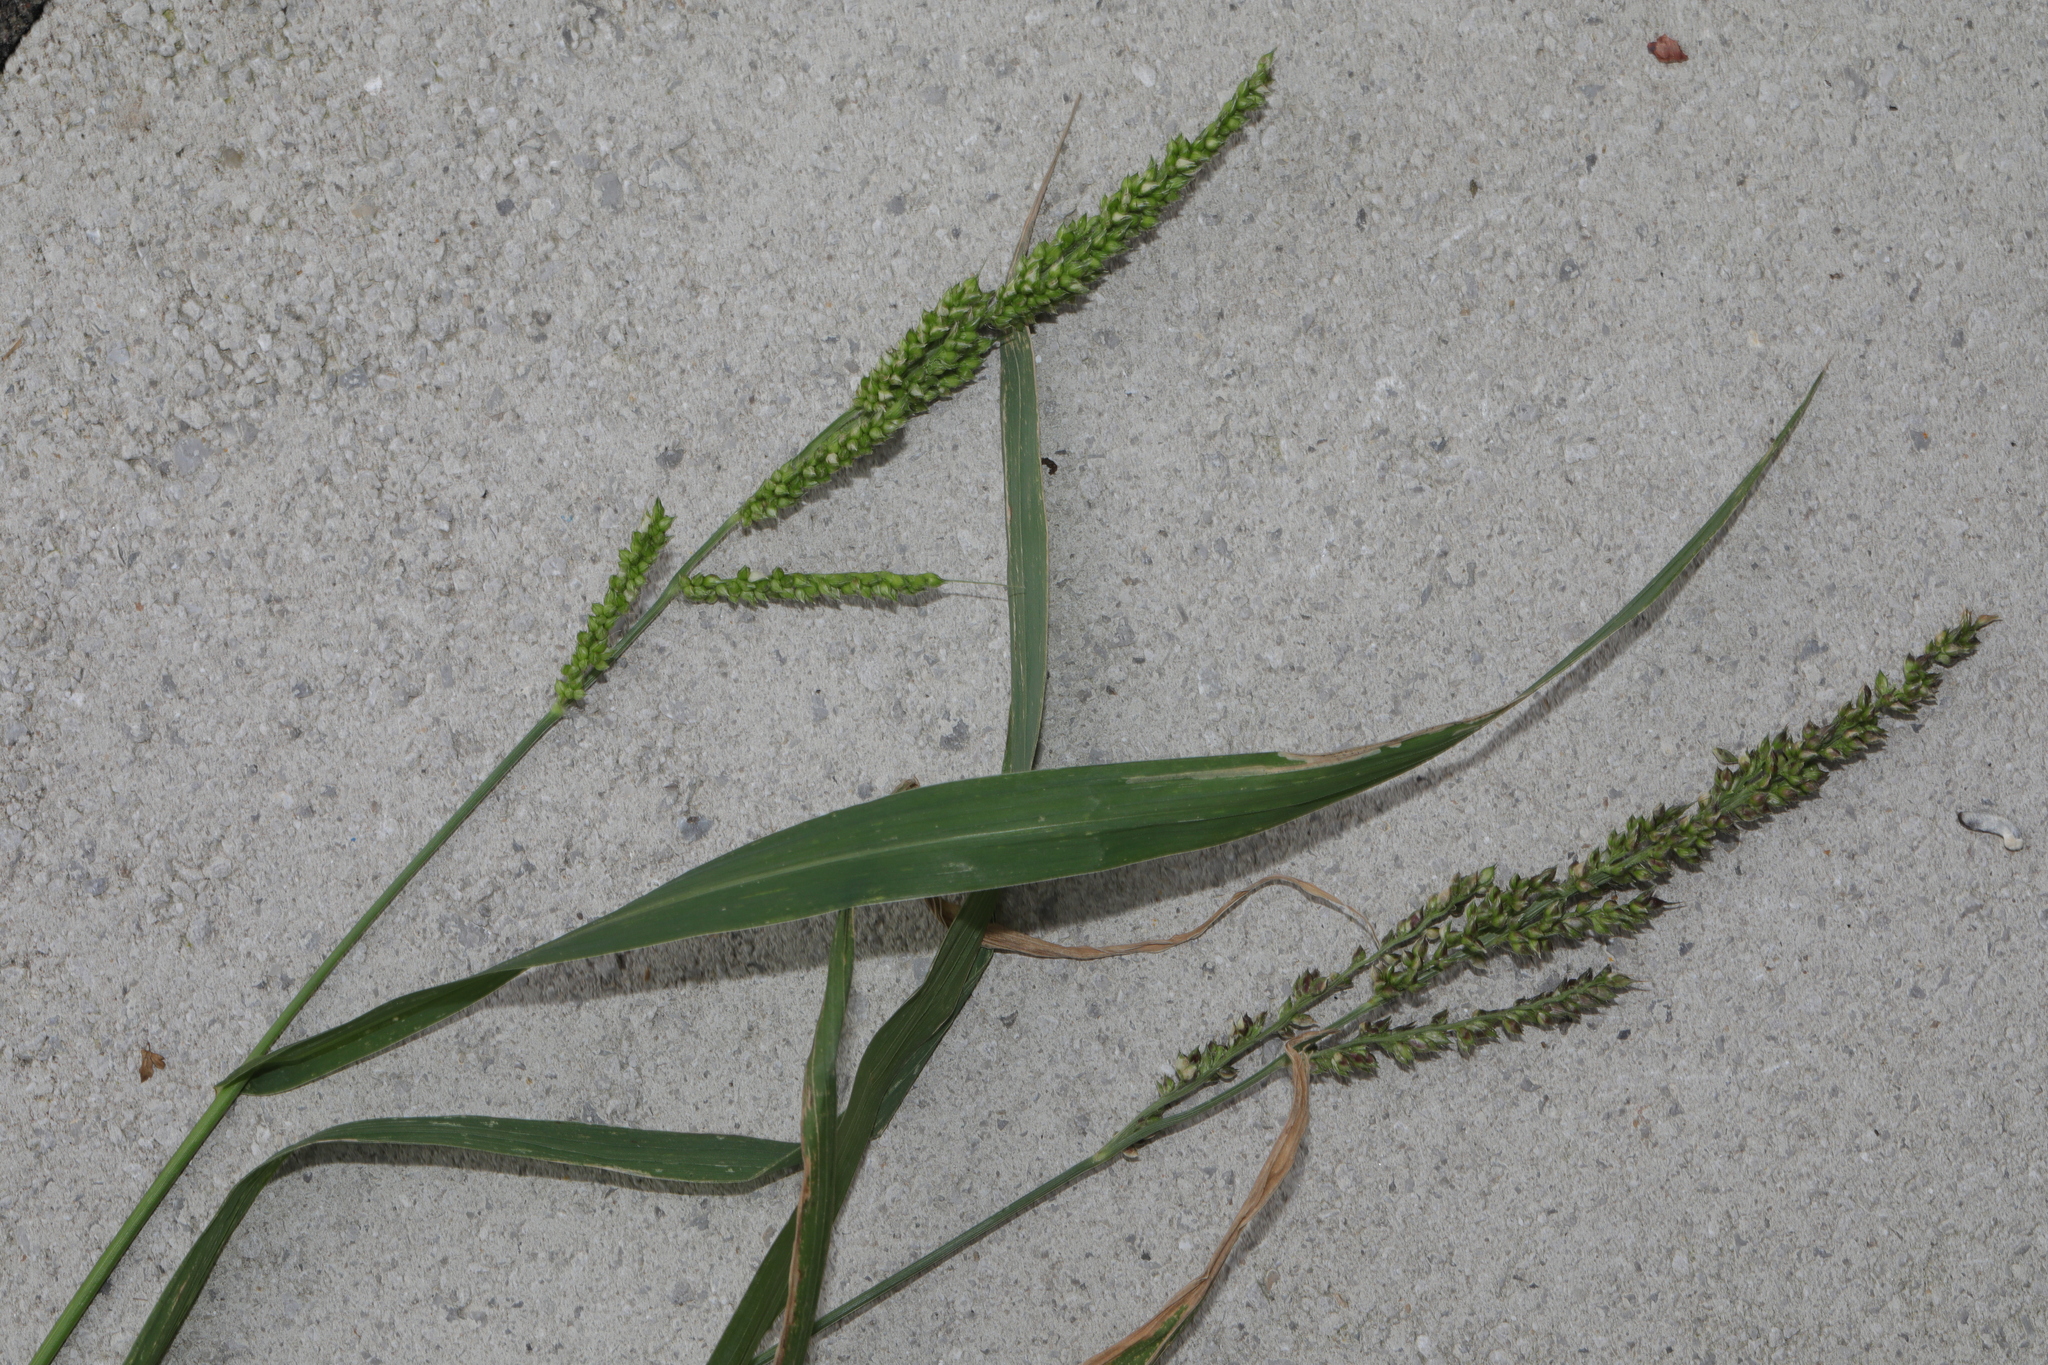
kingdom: Plantae
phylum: Tracheophyta
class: Liliopsida
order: Poales
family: Poaceae
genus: Echinochloa
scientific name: Echinochloa crus-galli
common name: Cockspur
